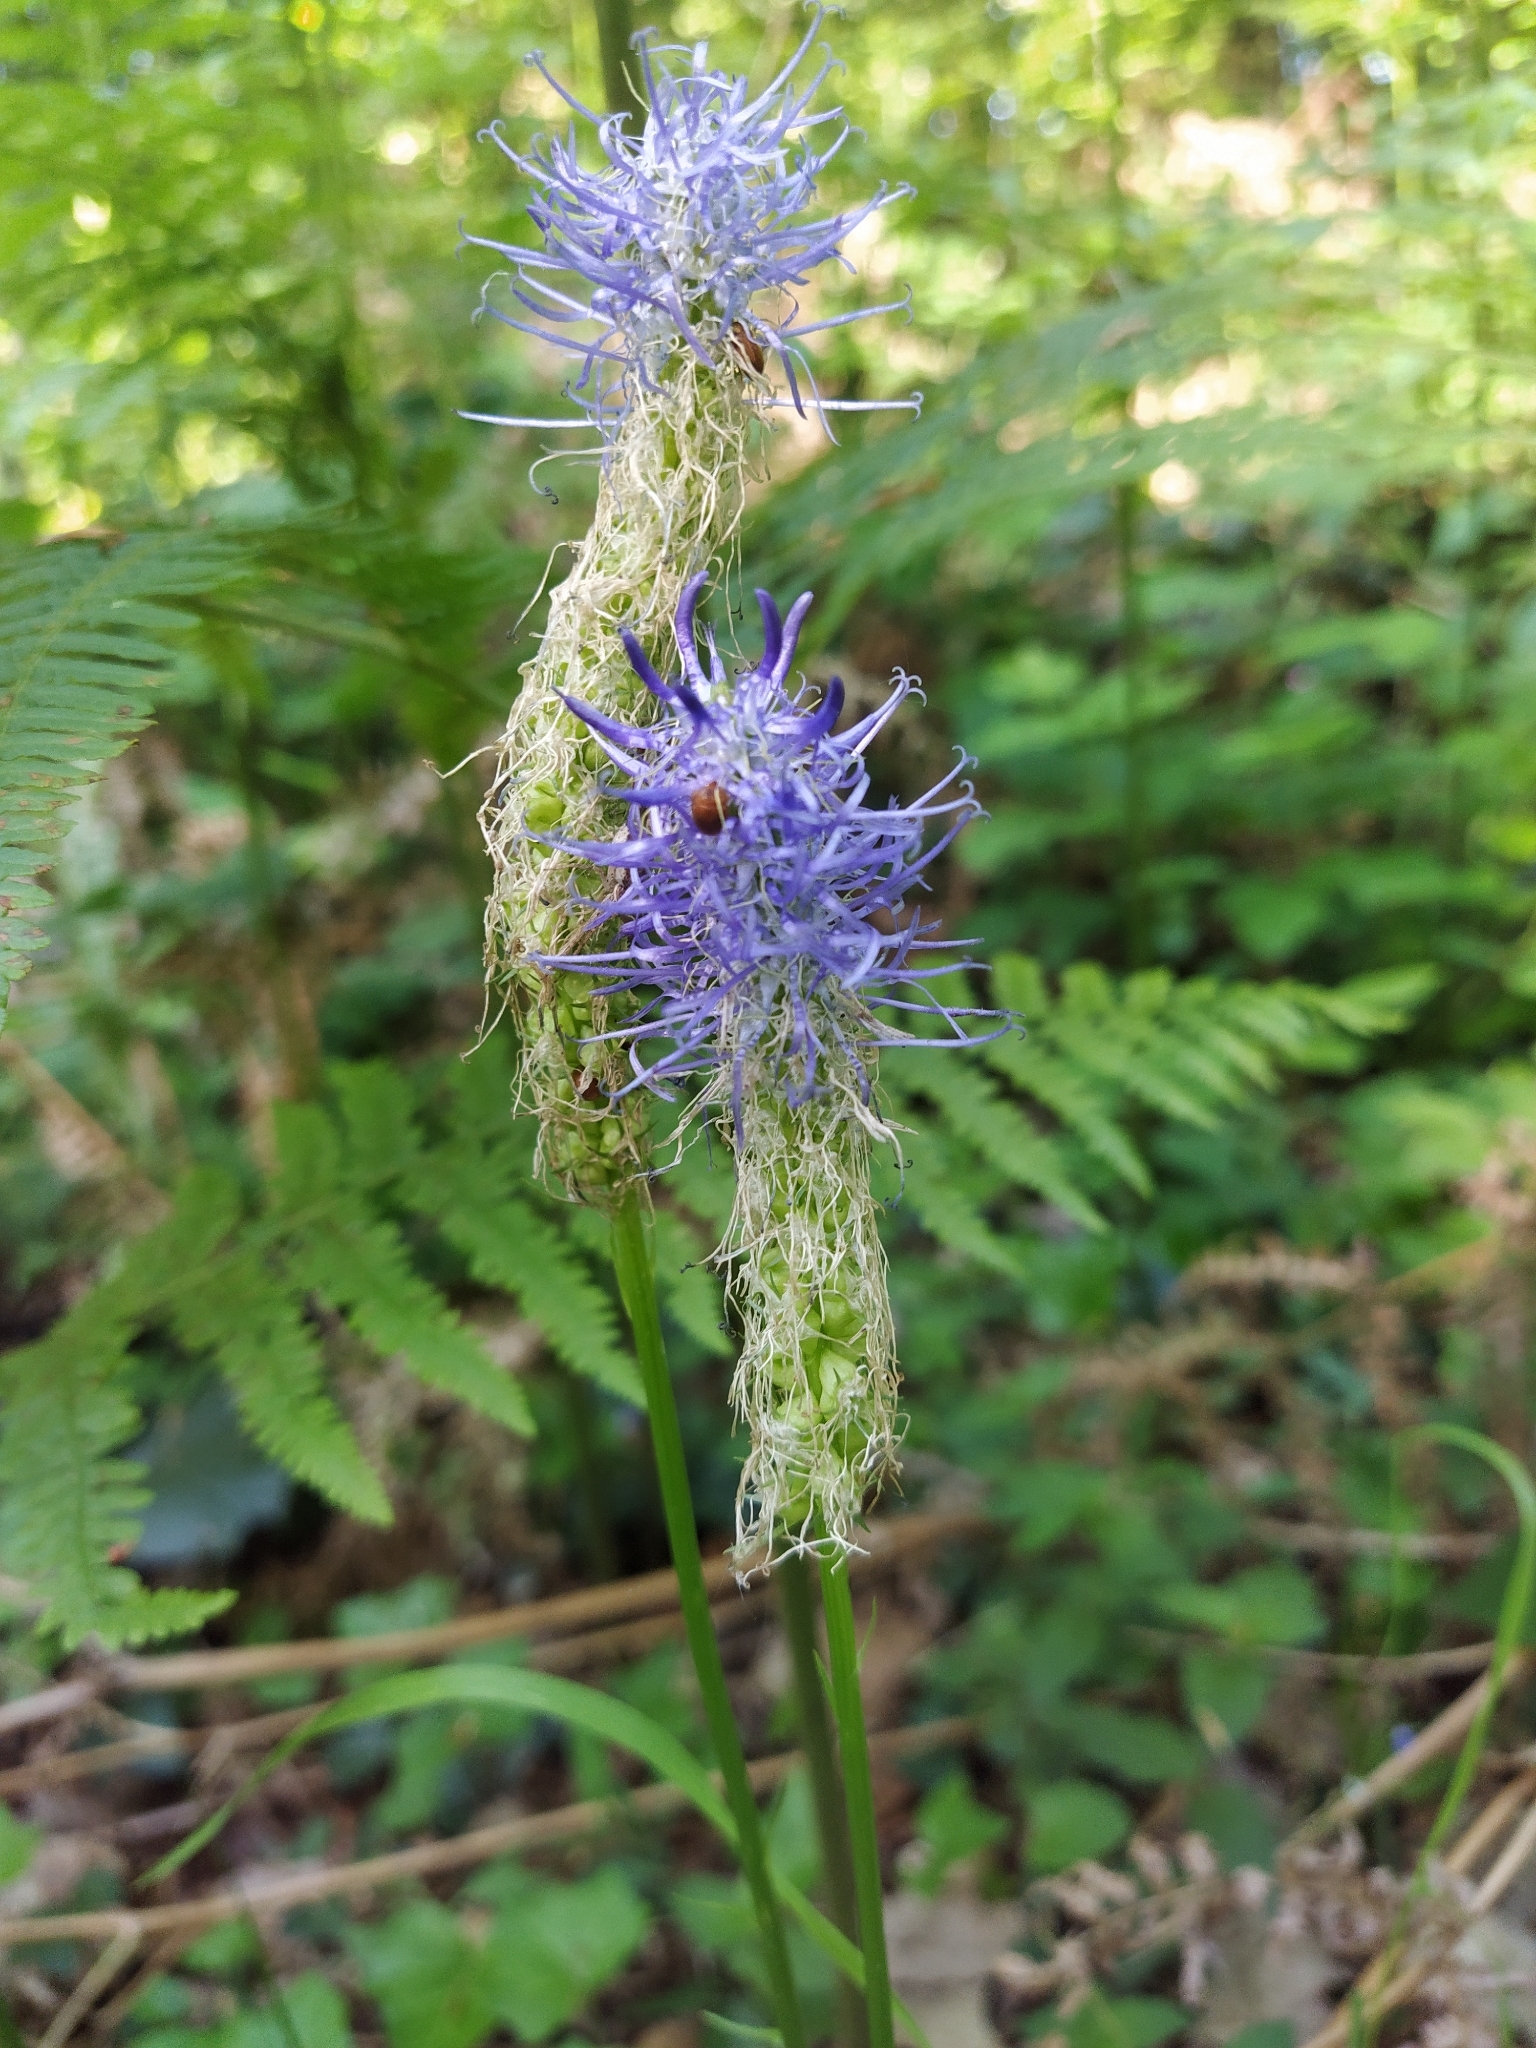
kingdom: Plantae
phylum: Tracheophyta
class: Magnoliopsida
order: Asterales
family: Campanulaceae
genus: Phyteuma
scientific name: Phyteuma spicatum
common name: Spiked rampion
